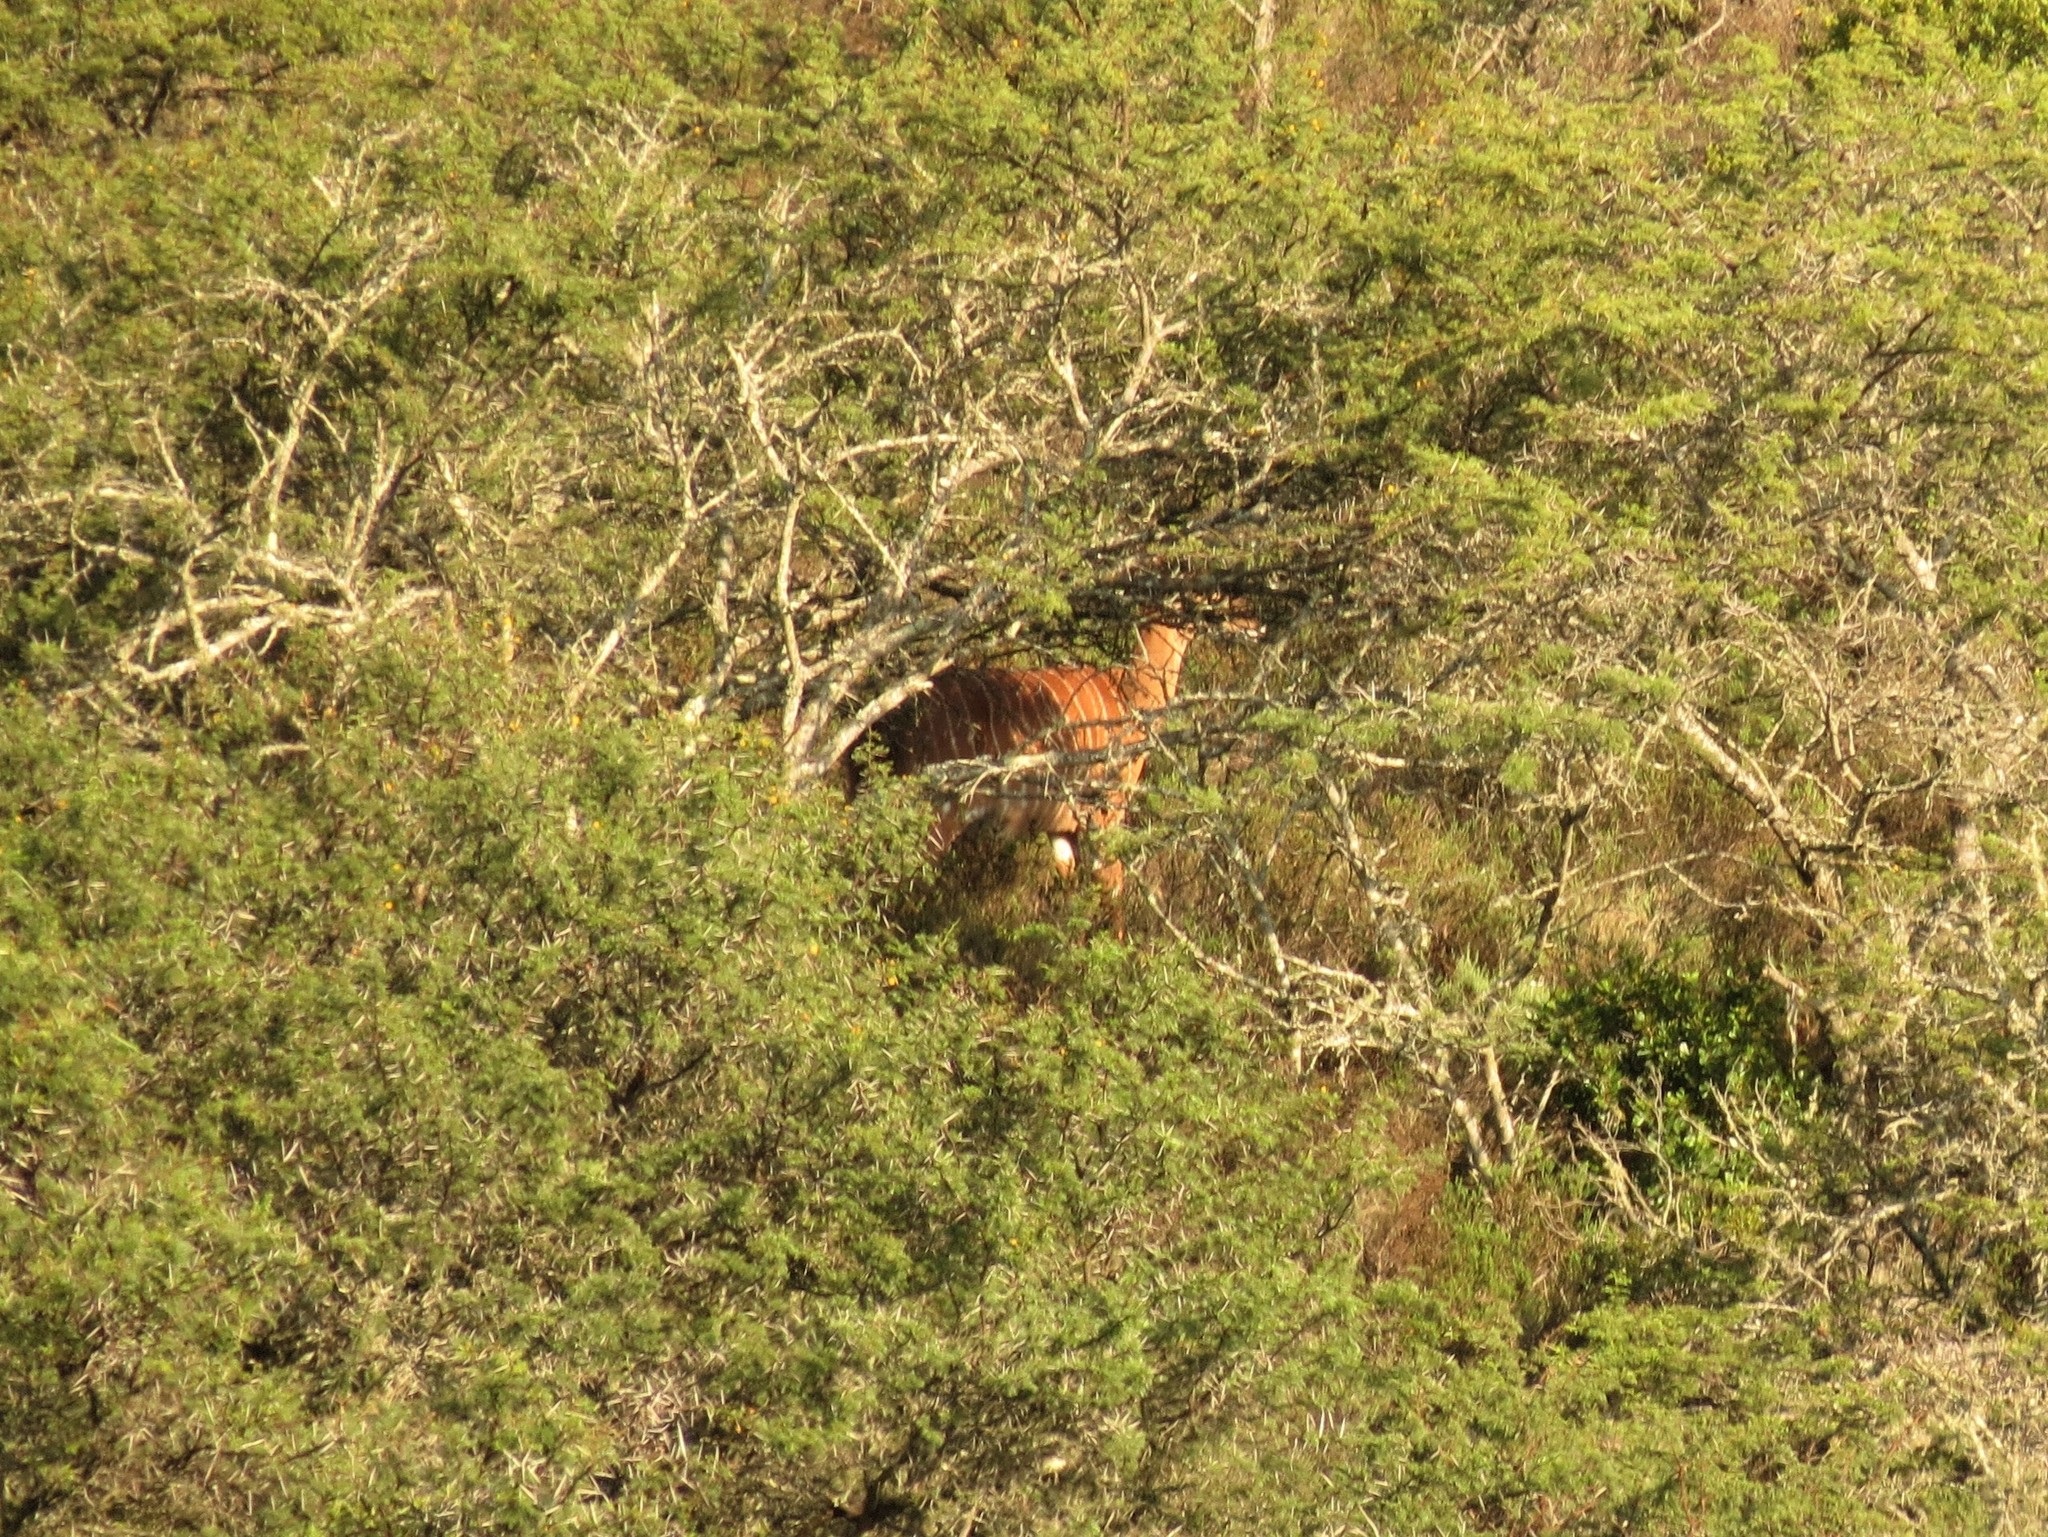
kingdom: Animalia
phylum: Chordata
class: Mammalia
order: Artiodactyla
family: Bovidae
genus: Tragelaphus
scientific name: Tragelaphus angasii
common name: Nyala
